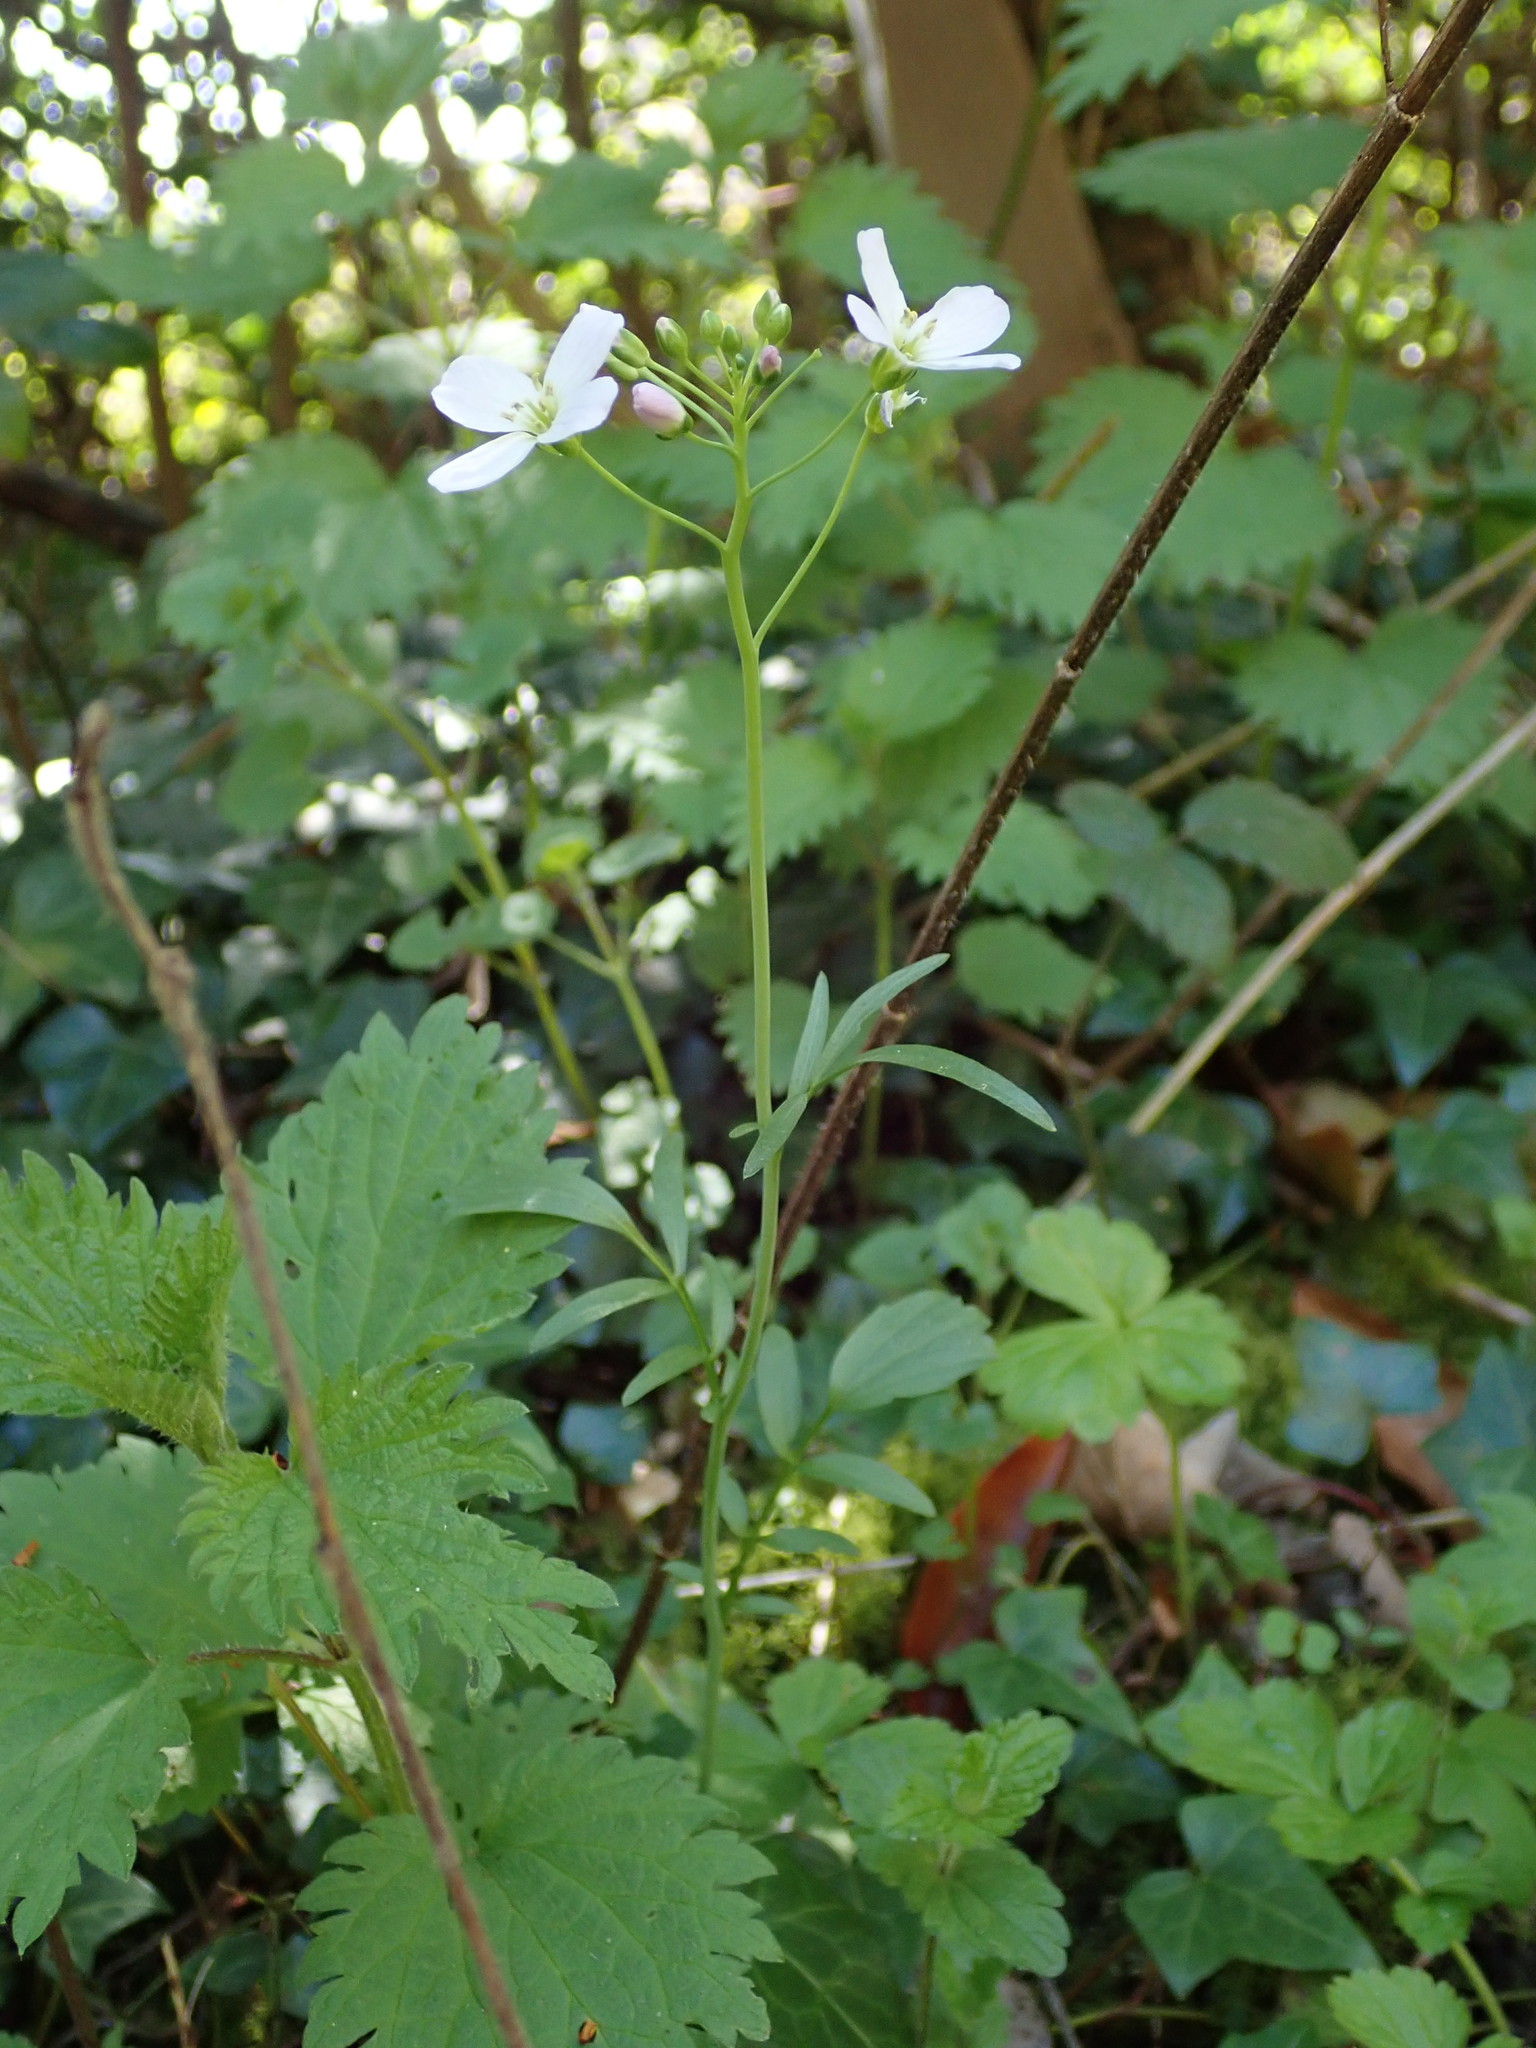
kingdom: Plantae
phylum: Tracheophyta
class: Magnoliopsida
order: Brassicales
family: Brassicaceae
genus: Cardamine
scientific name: Cardamine pratensis
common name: Cuckoo flower
